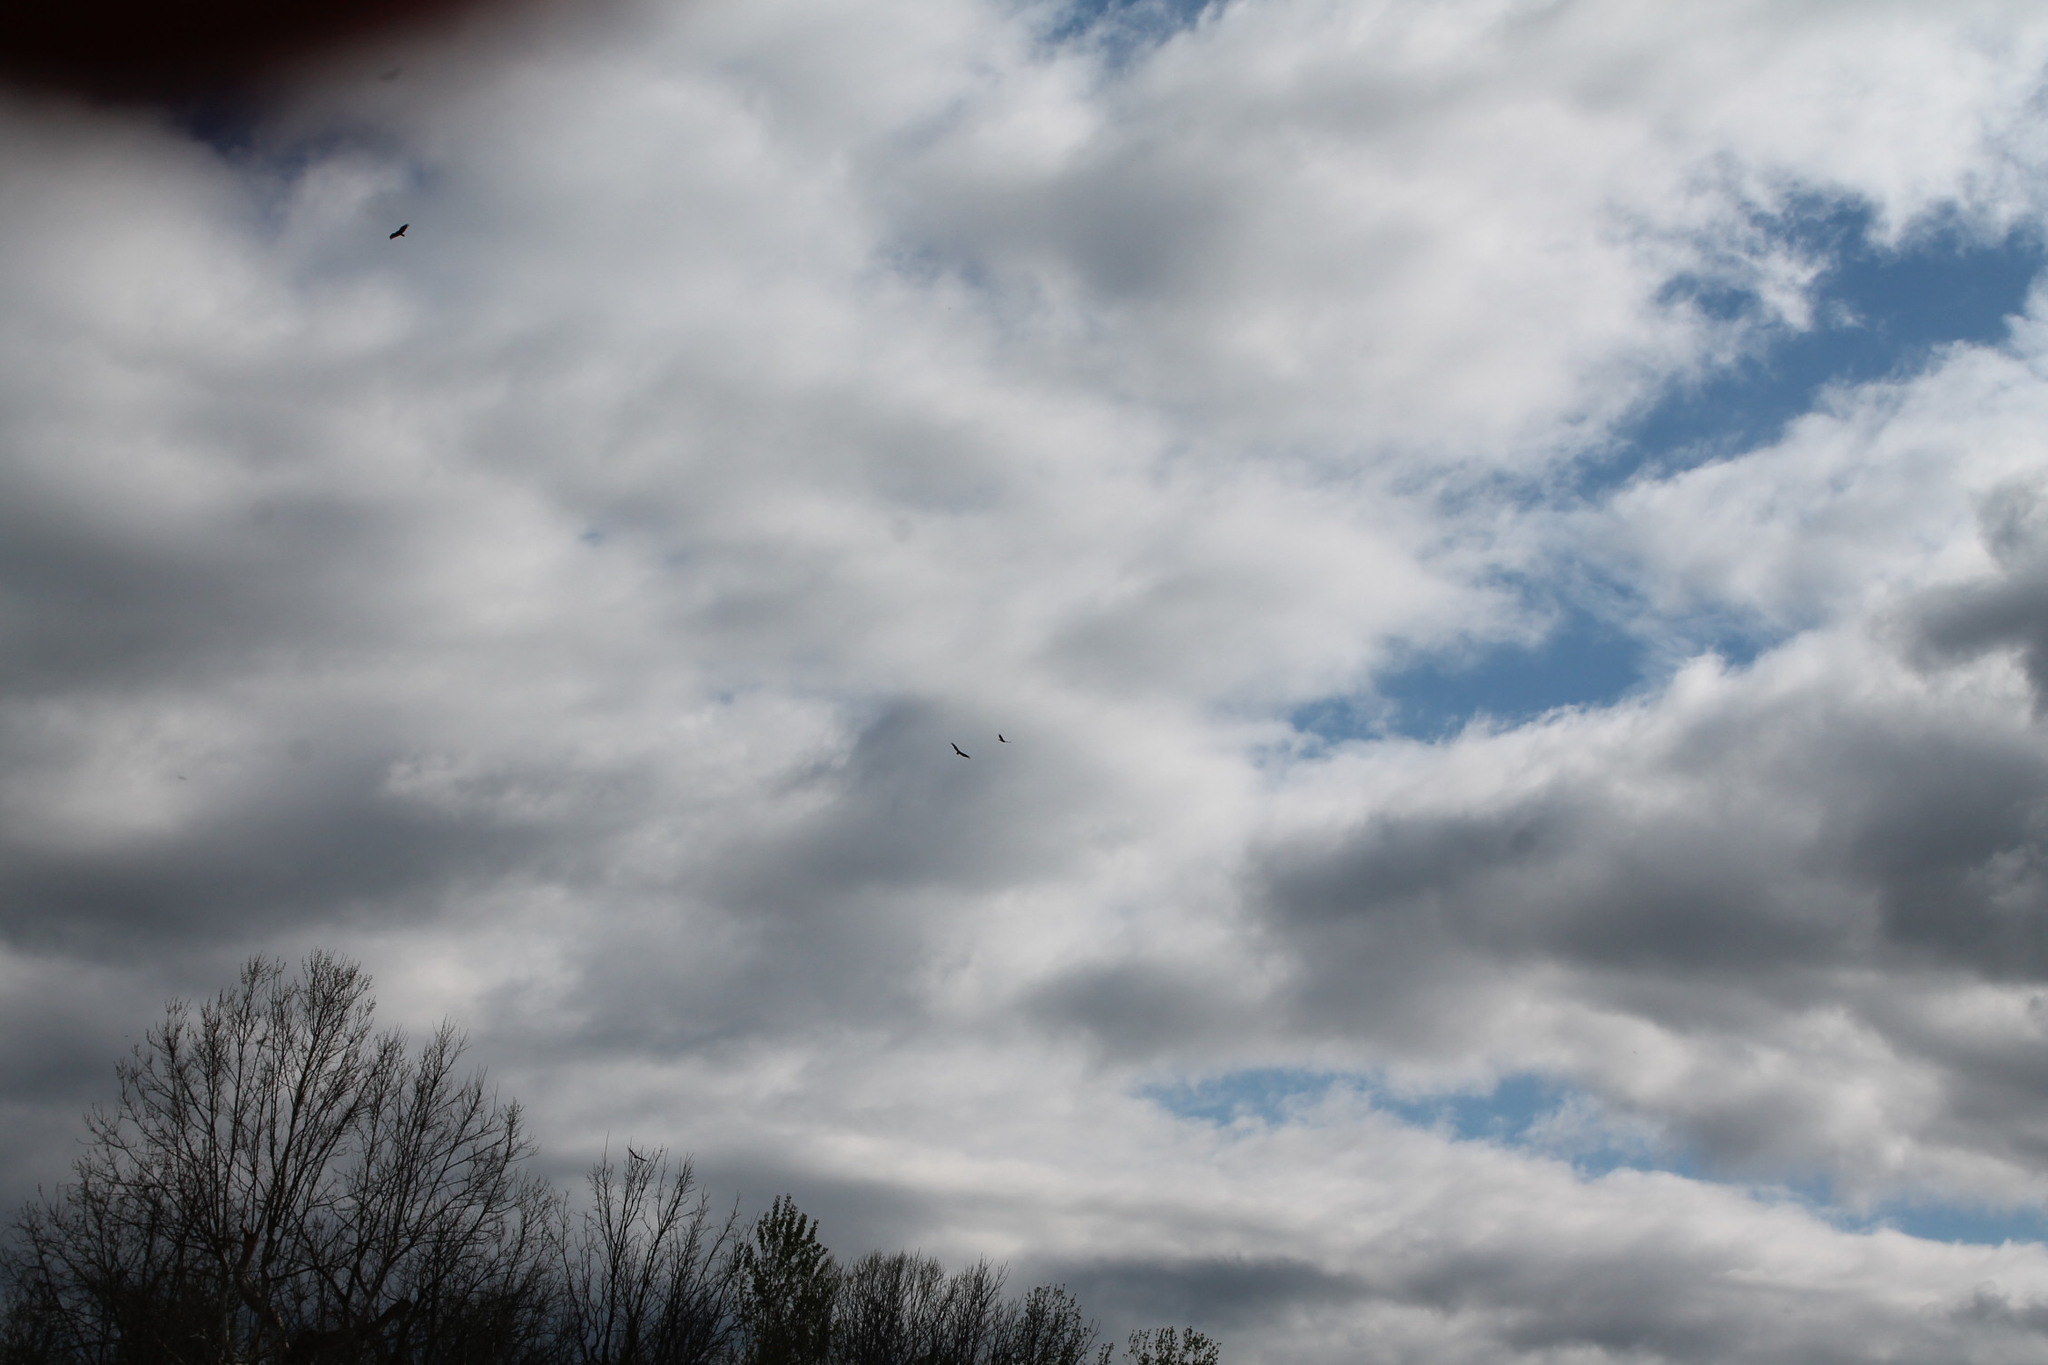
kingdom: Animalia
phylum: Chordata
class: Aves
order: Accipitriformes
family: Cathartidae
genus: Cathartes
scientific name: Cathartes aura
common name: Turkey vulture
